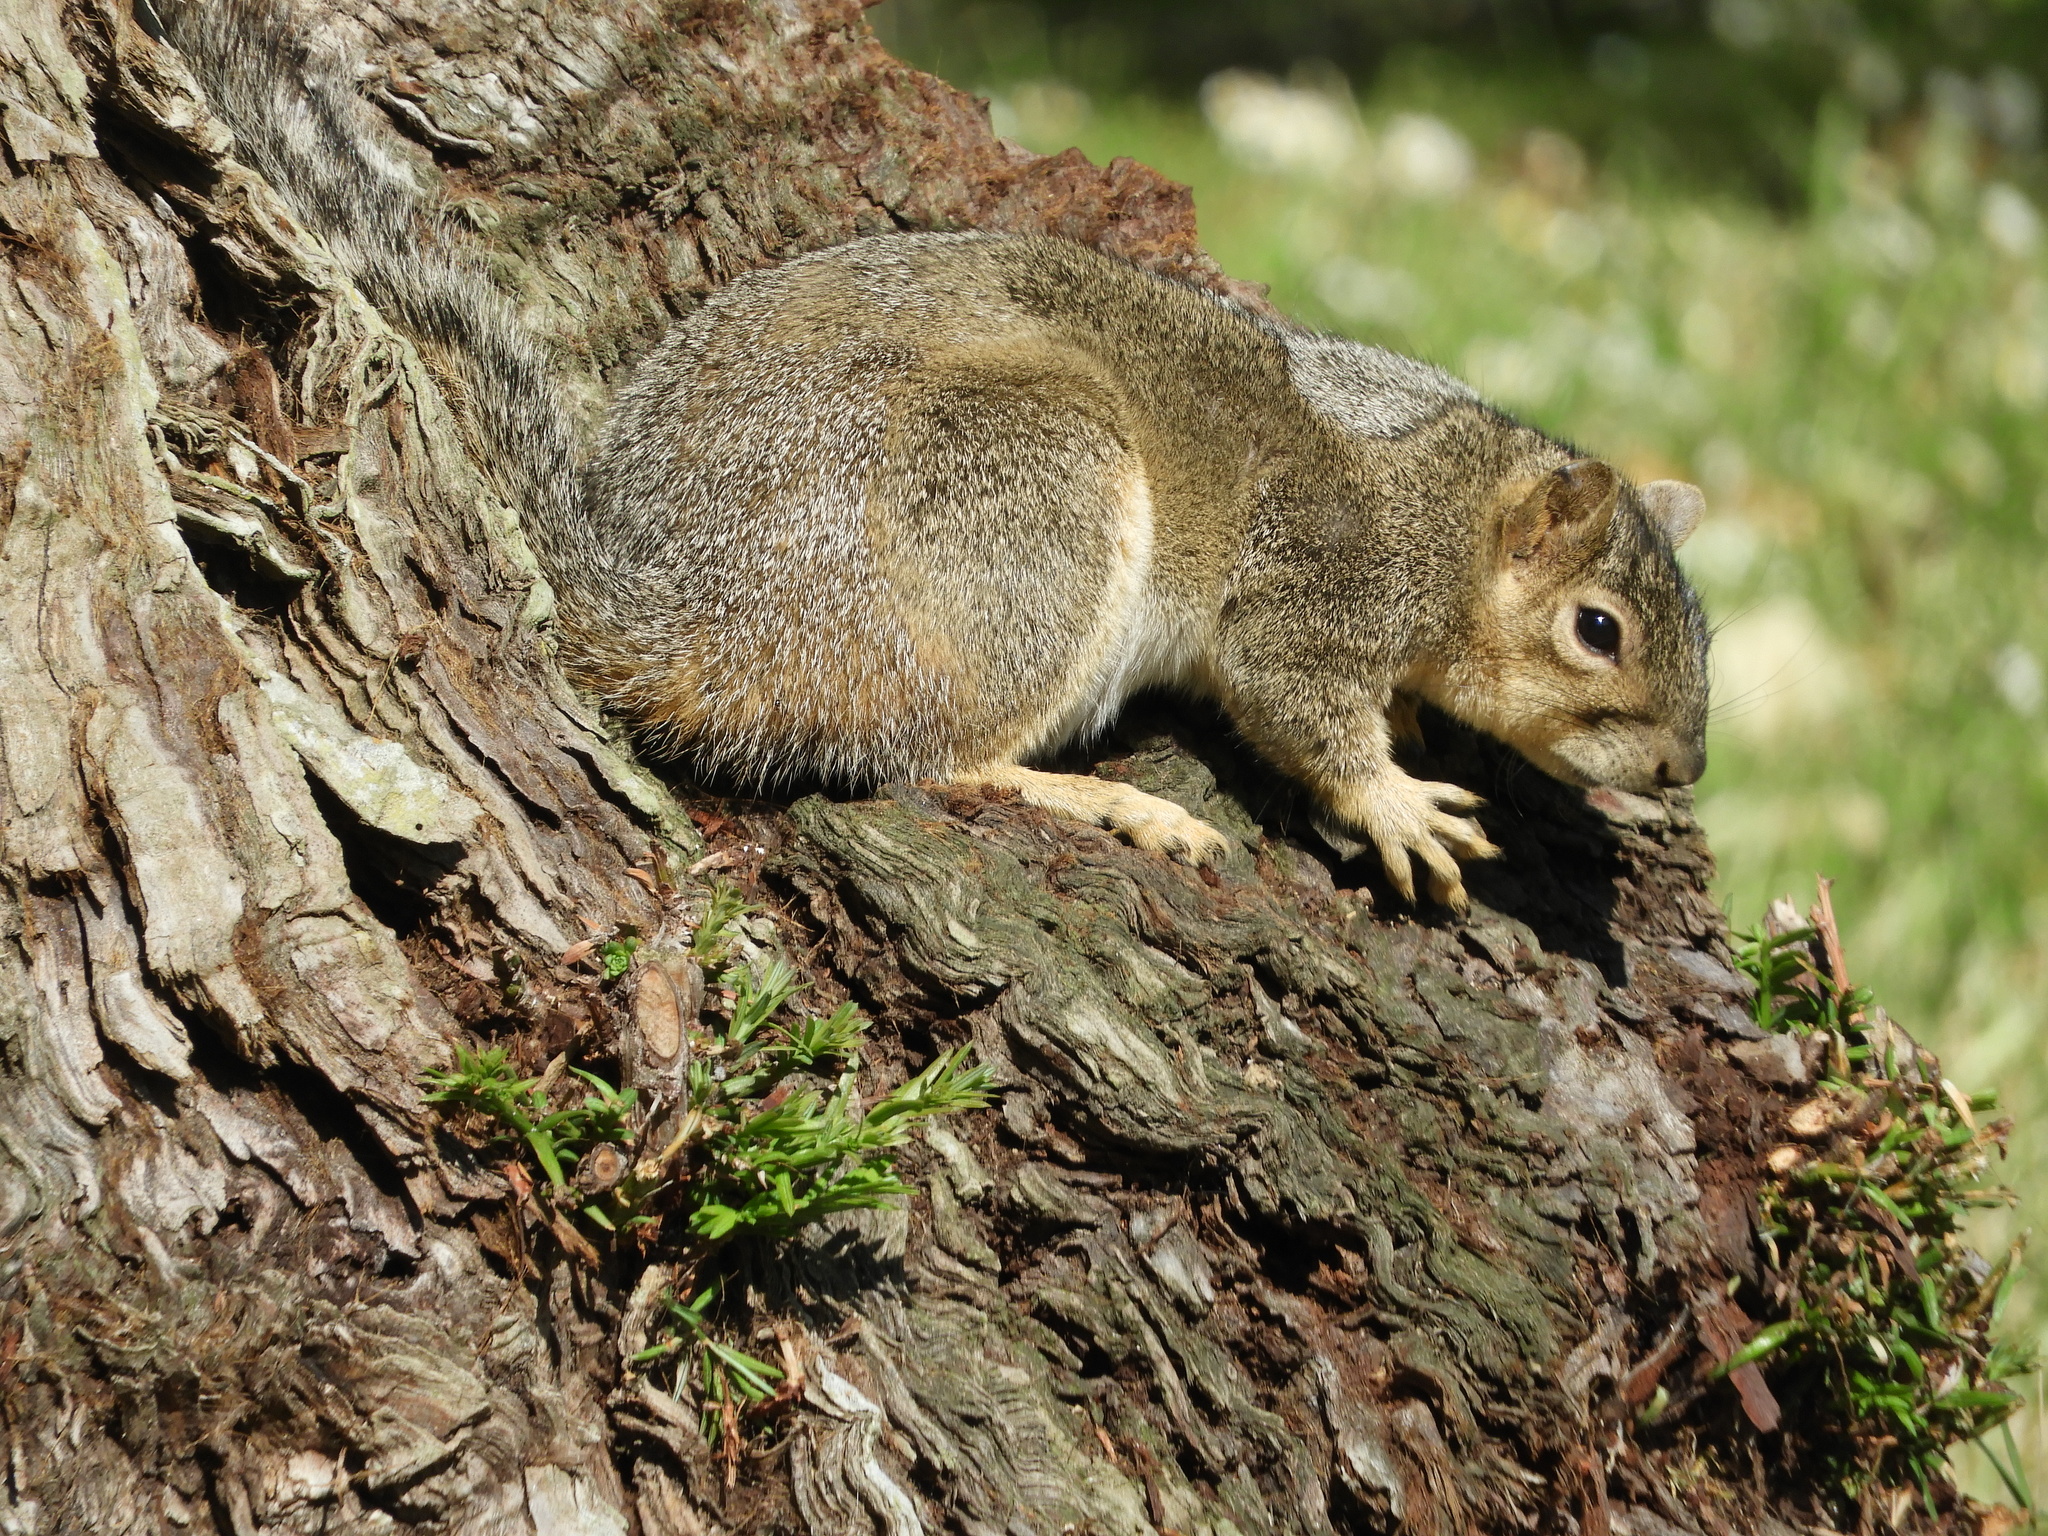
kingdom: Animalia
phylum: Chordata
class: Mammalia
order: Rodentia
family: Sciuridae
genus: Sciurus
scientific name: Sciurus niger
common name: Fox squirrel
